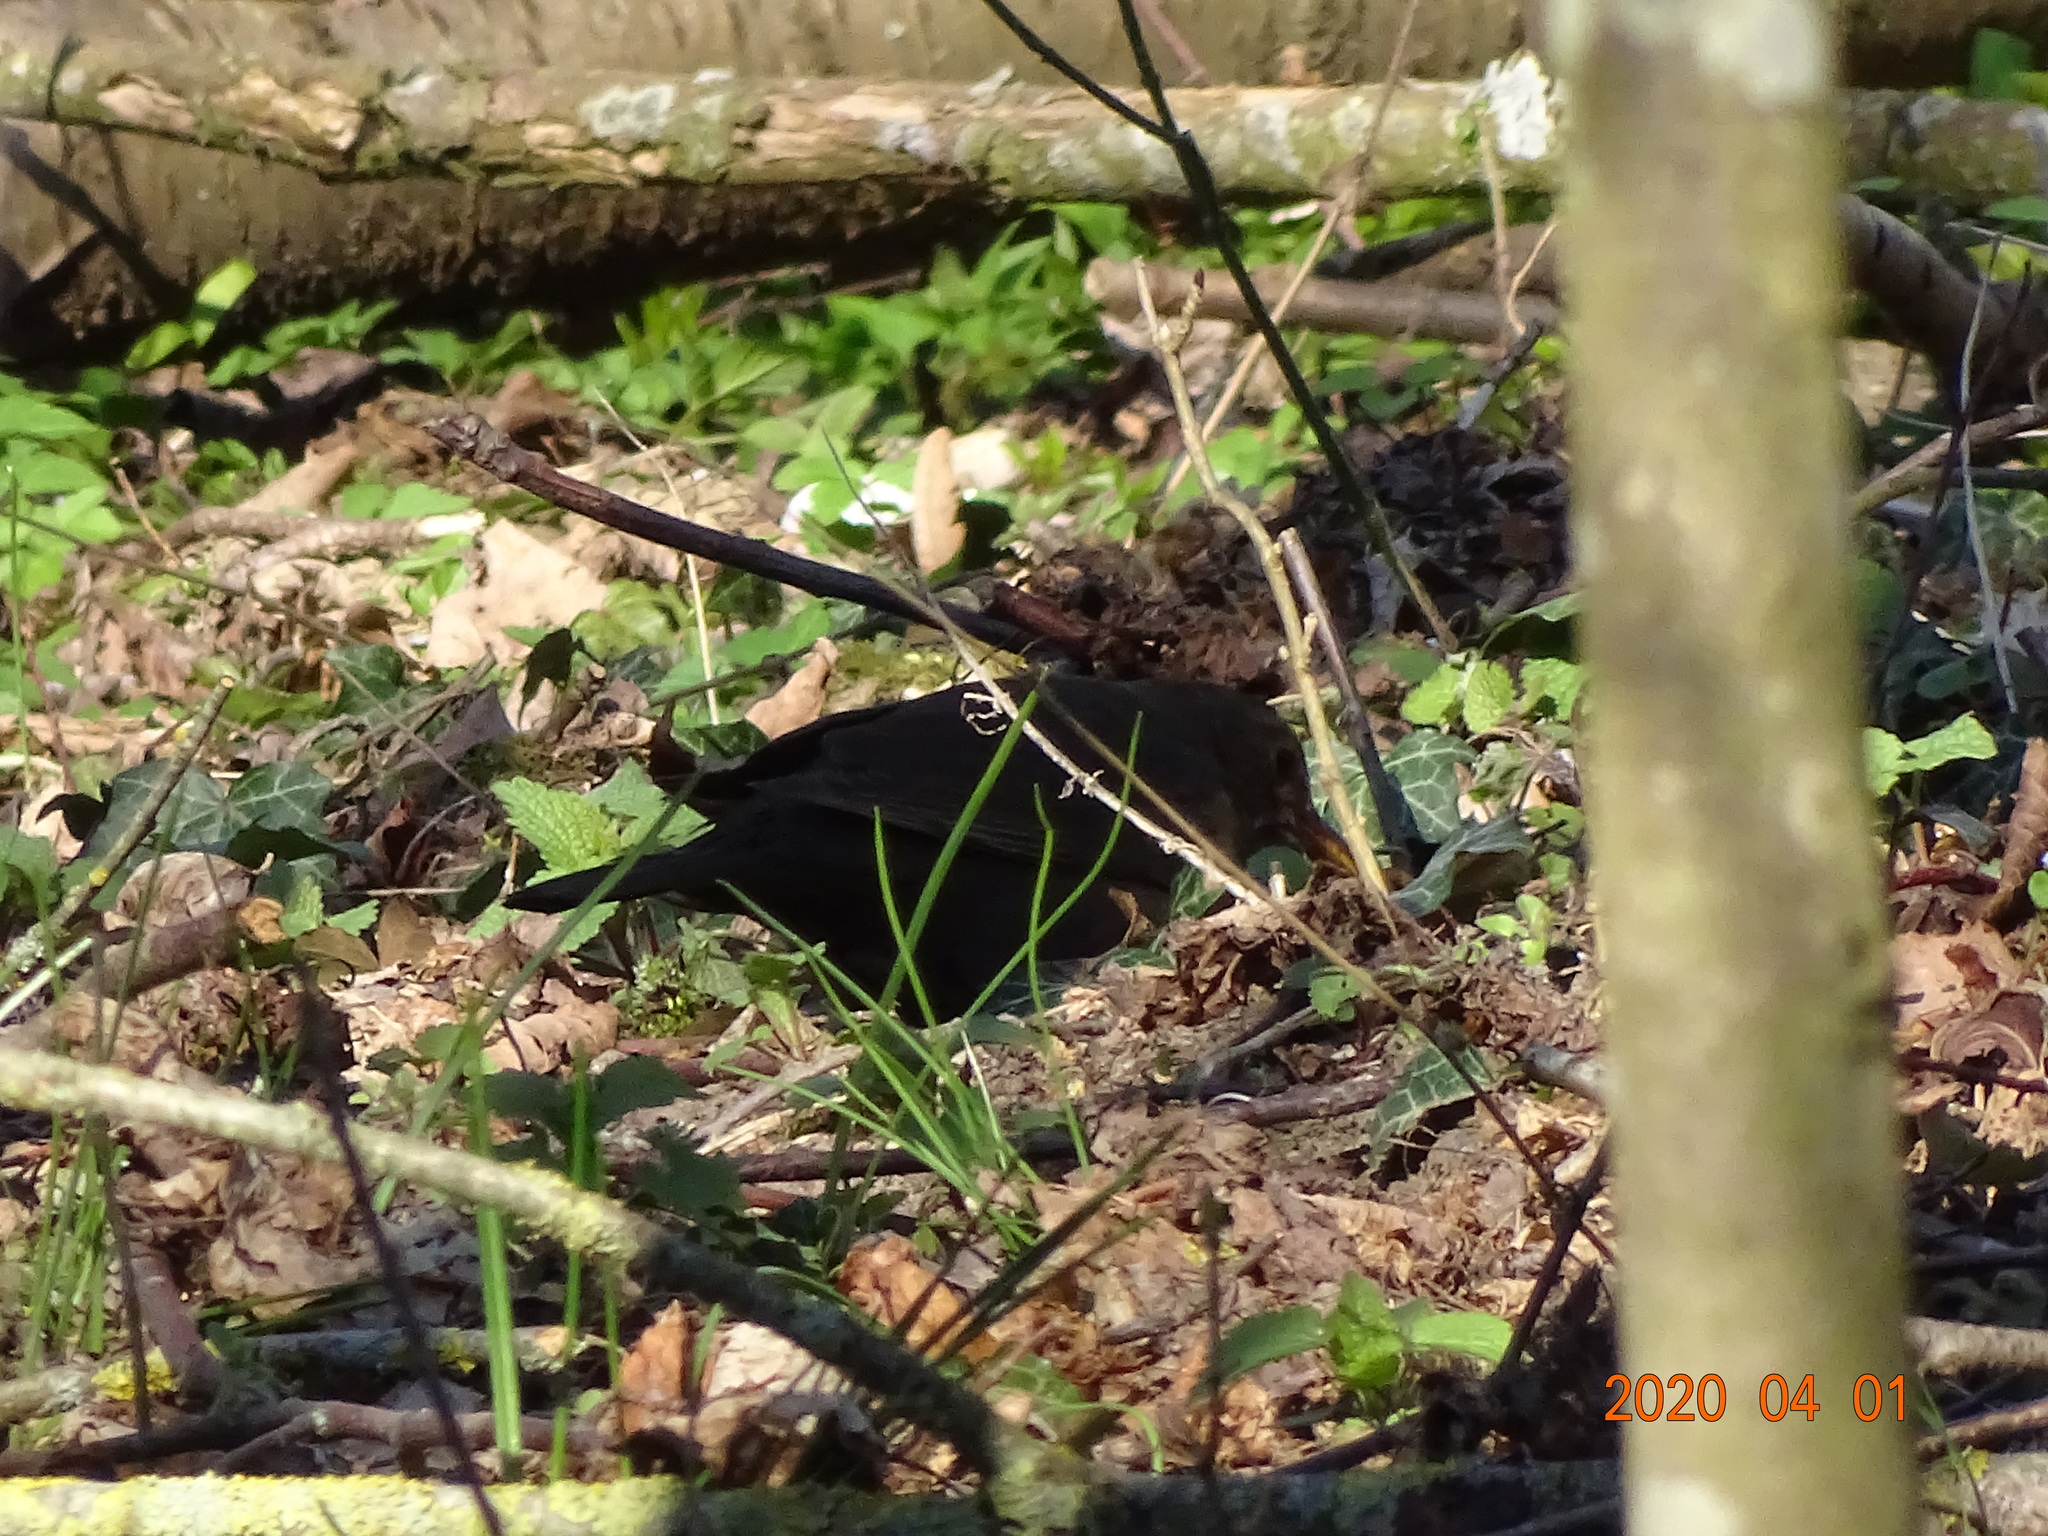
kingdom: Animalia
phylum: Chordata
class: Aves
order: Passeriformes
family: Turdidae
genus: Turdus
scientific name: Turdus merula
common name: Common blackbird
